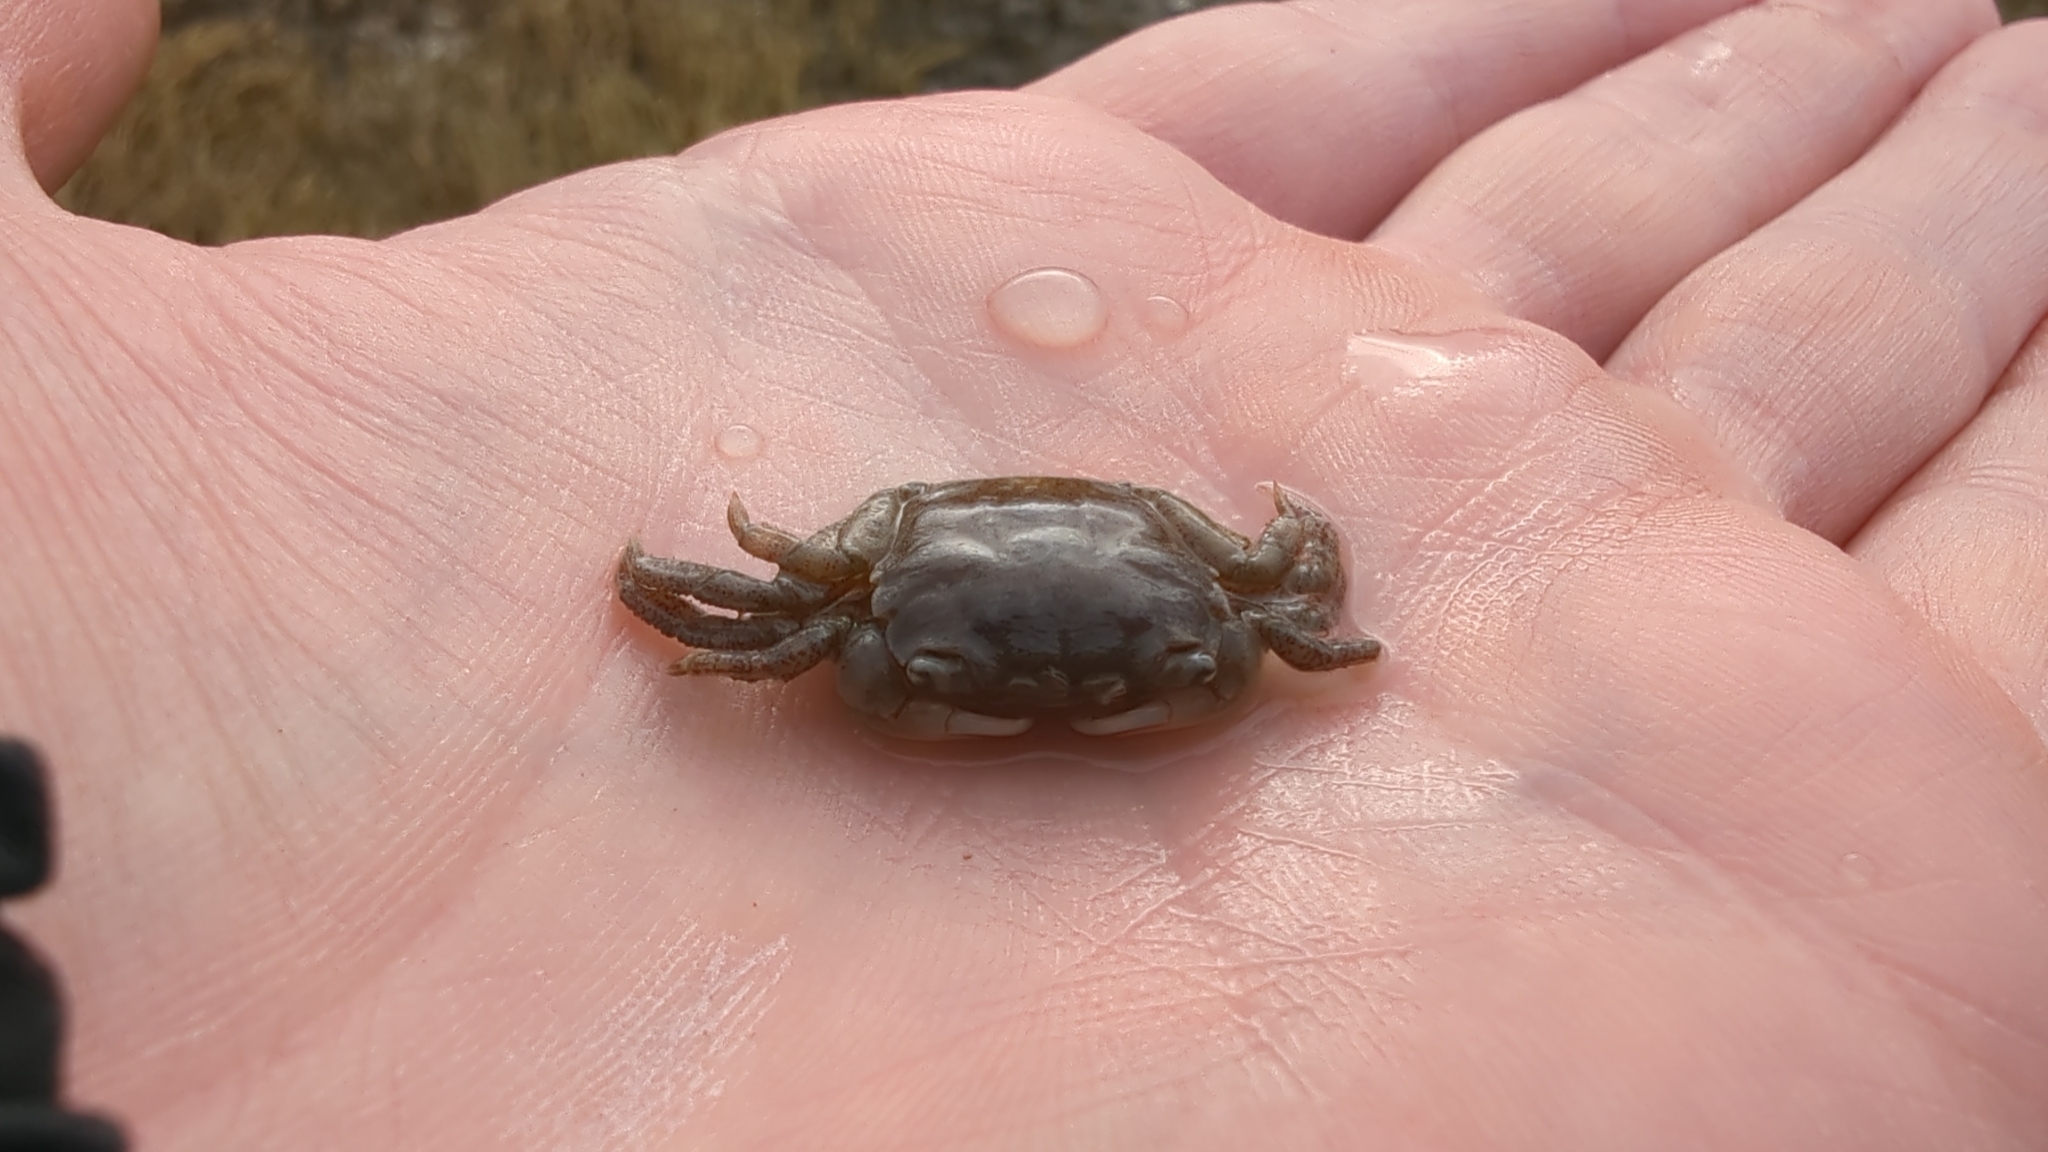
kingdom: Animalia
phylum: Arthropoda
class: Malacostraca
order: Decapoda
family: Varunidae
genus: Hemigrapsus
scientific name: Hemigrapsus oregonensis
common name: Yellow shore crab
